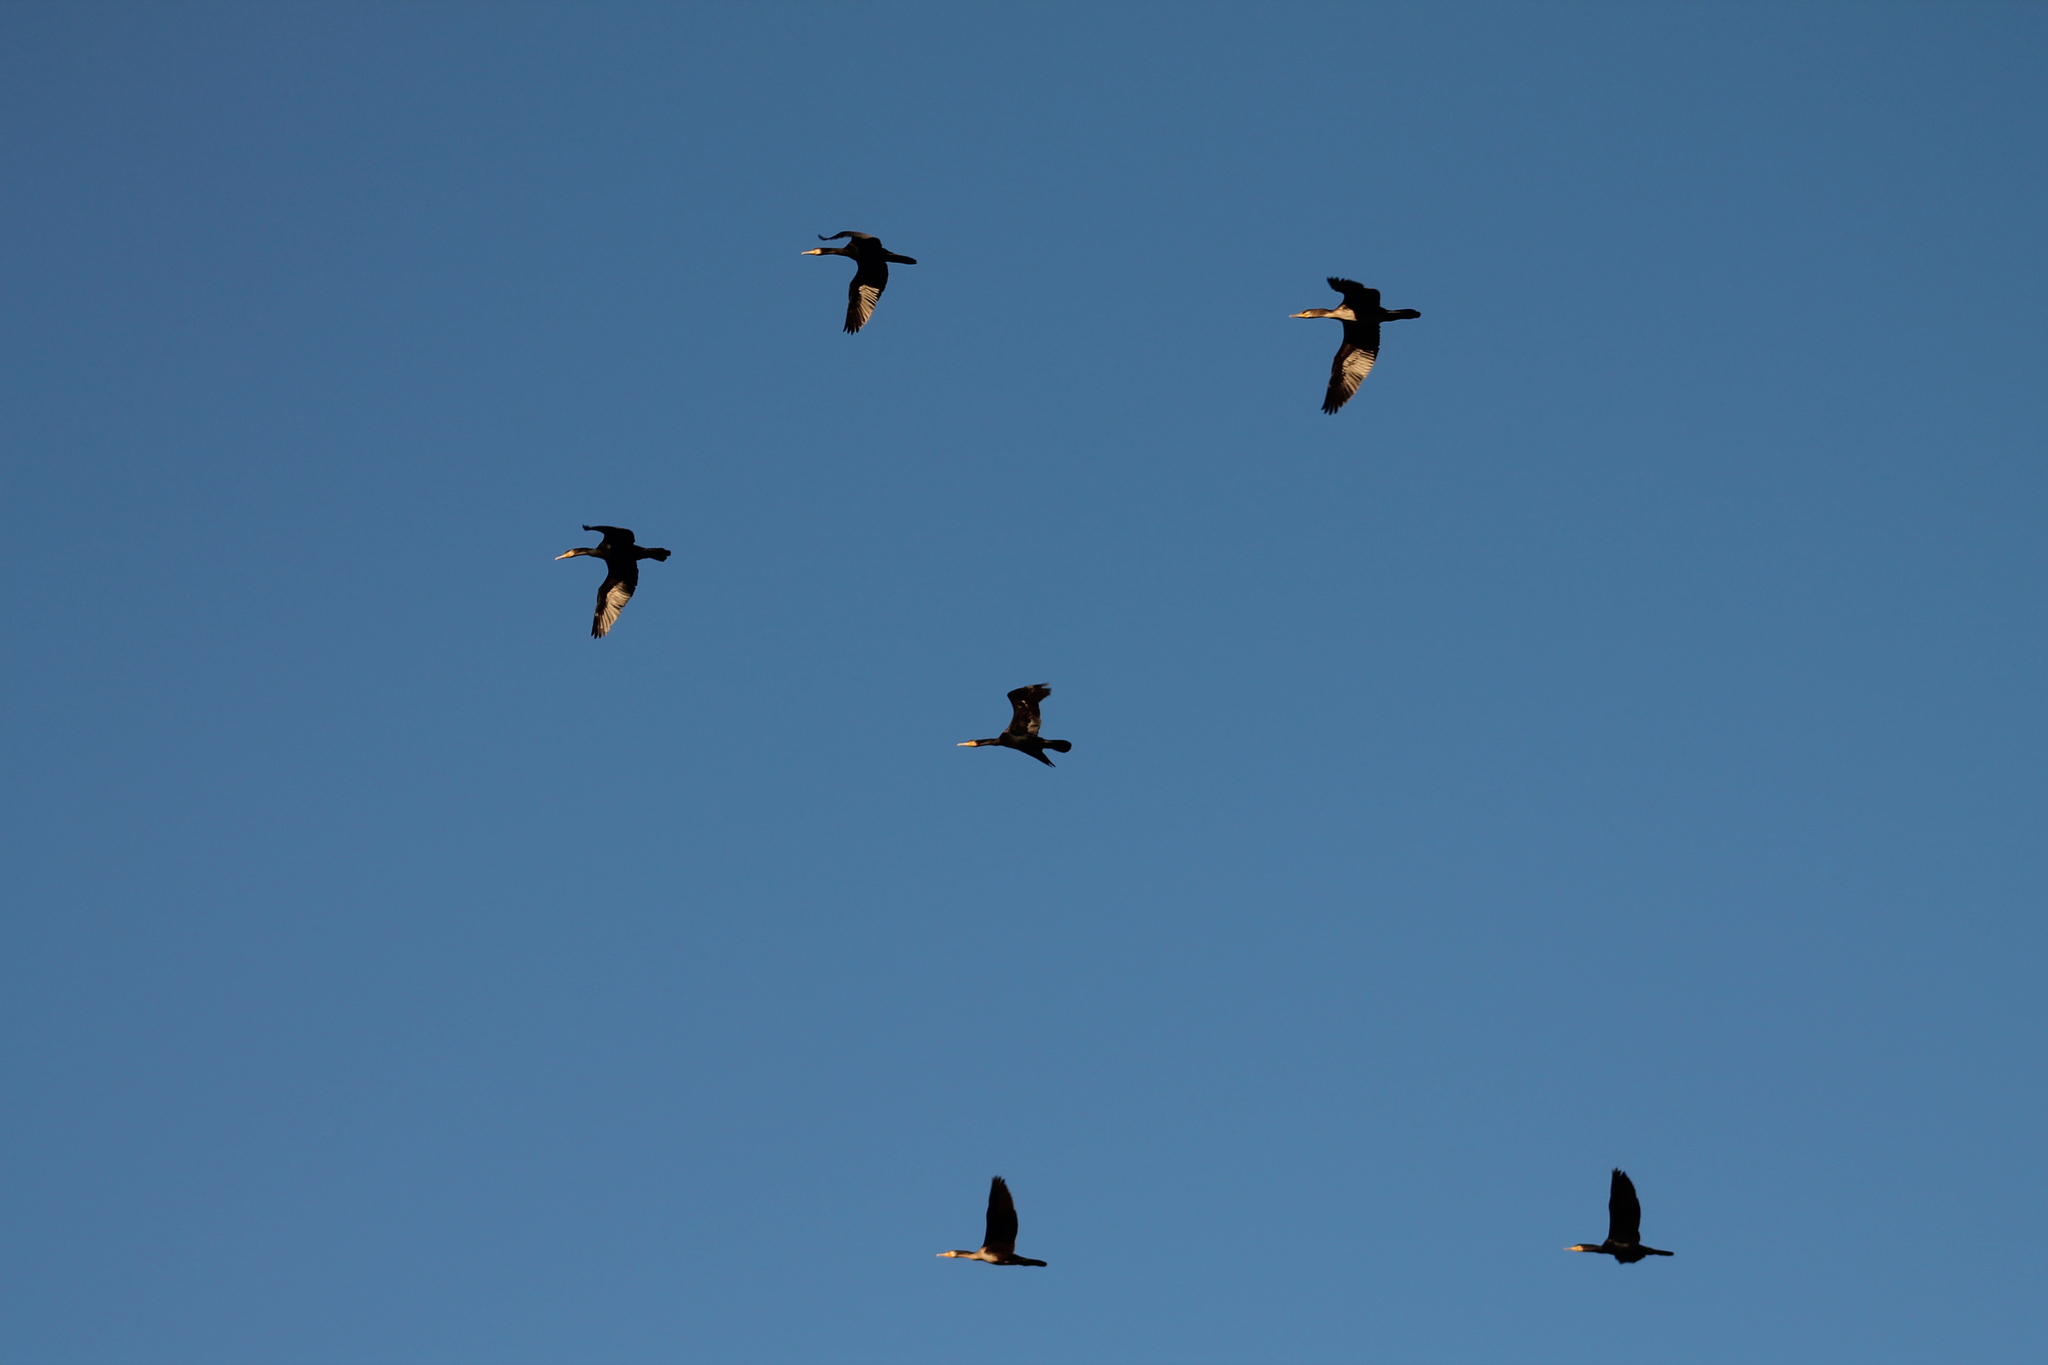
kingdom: Animalia
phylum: Chordata
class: Aves
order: Suliformes
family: Phalacrocoracidae
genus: Phalacrocorax
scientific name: Phalacrocorax carbo
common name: Great cormorant
